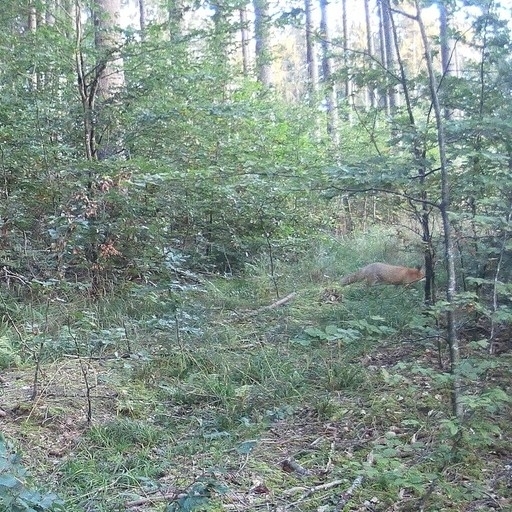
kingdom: Animalia
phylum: Chordata
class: Mammalia
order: Carnivora
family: Canidae
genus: Vulpes
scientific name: Vulpes vulpes
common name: Red fox
